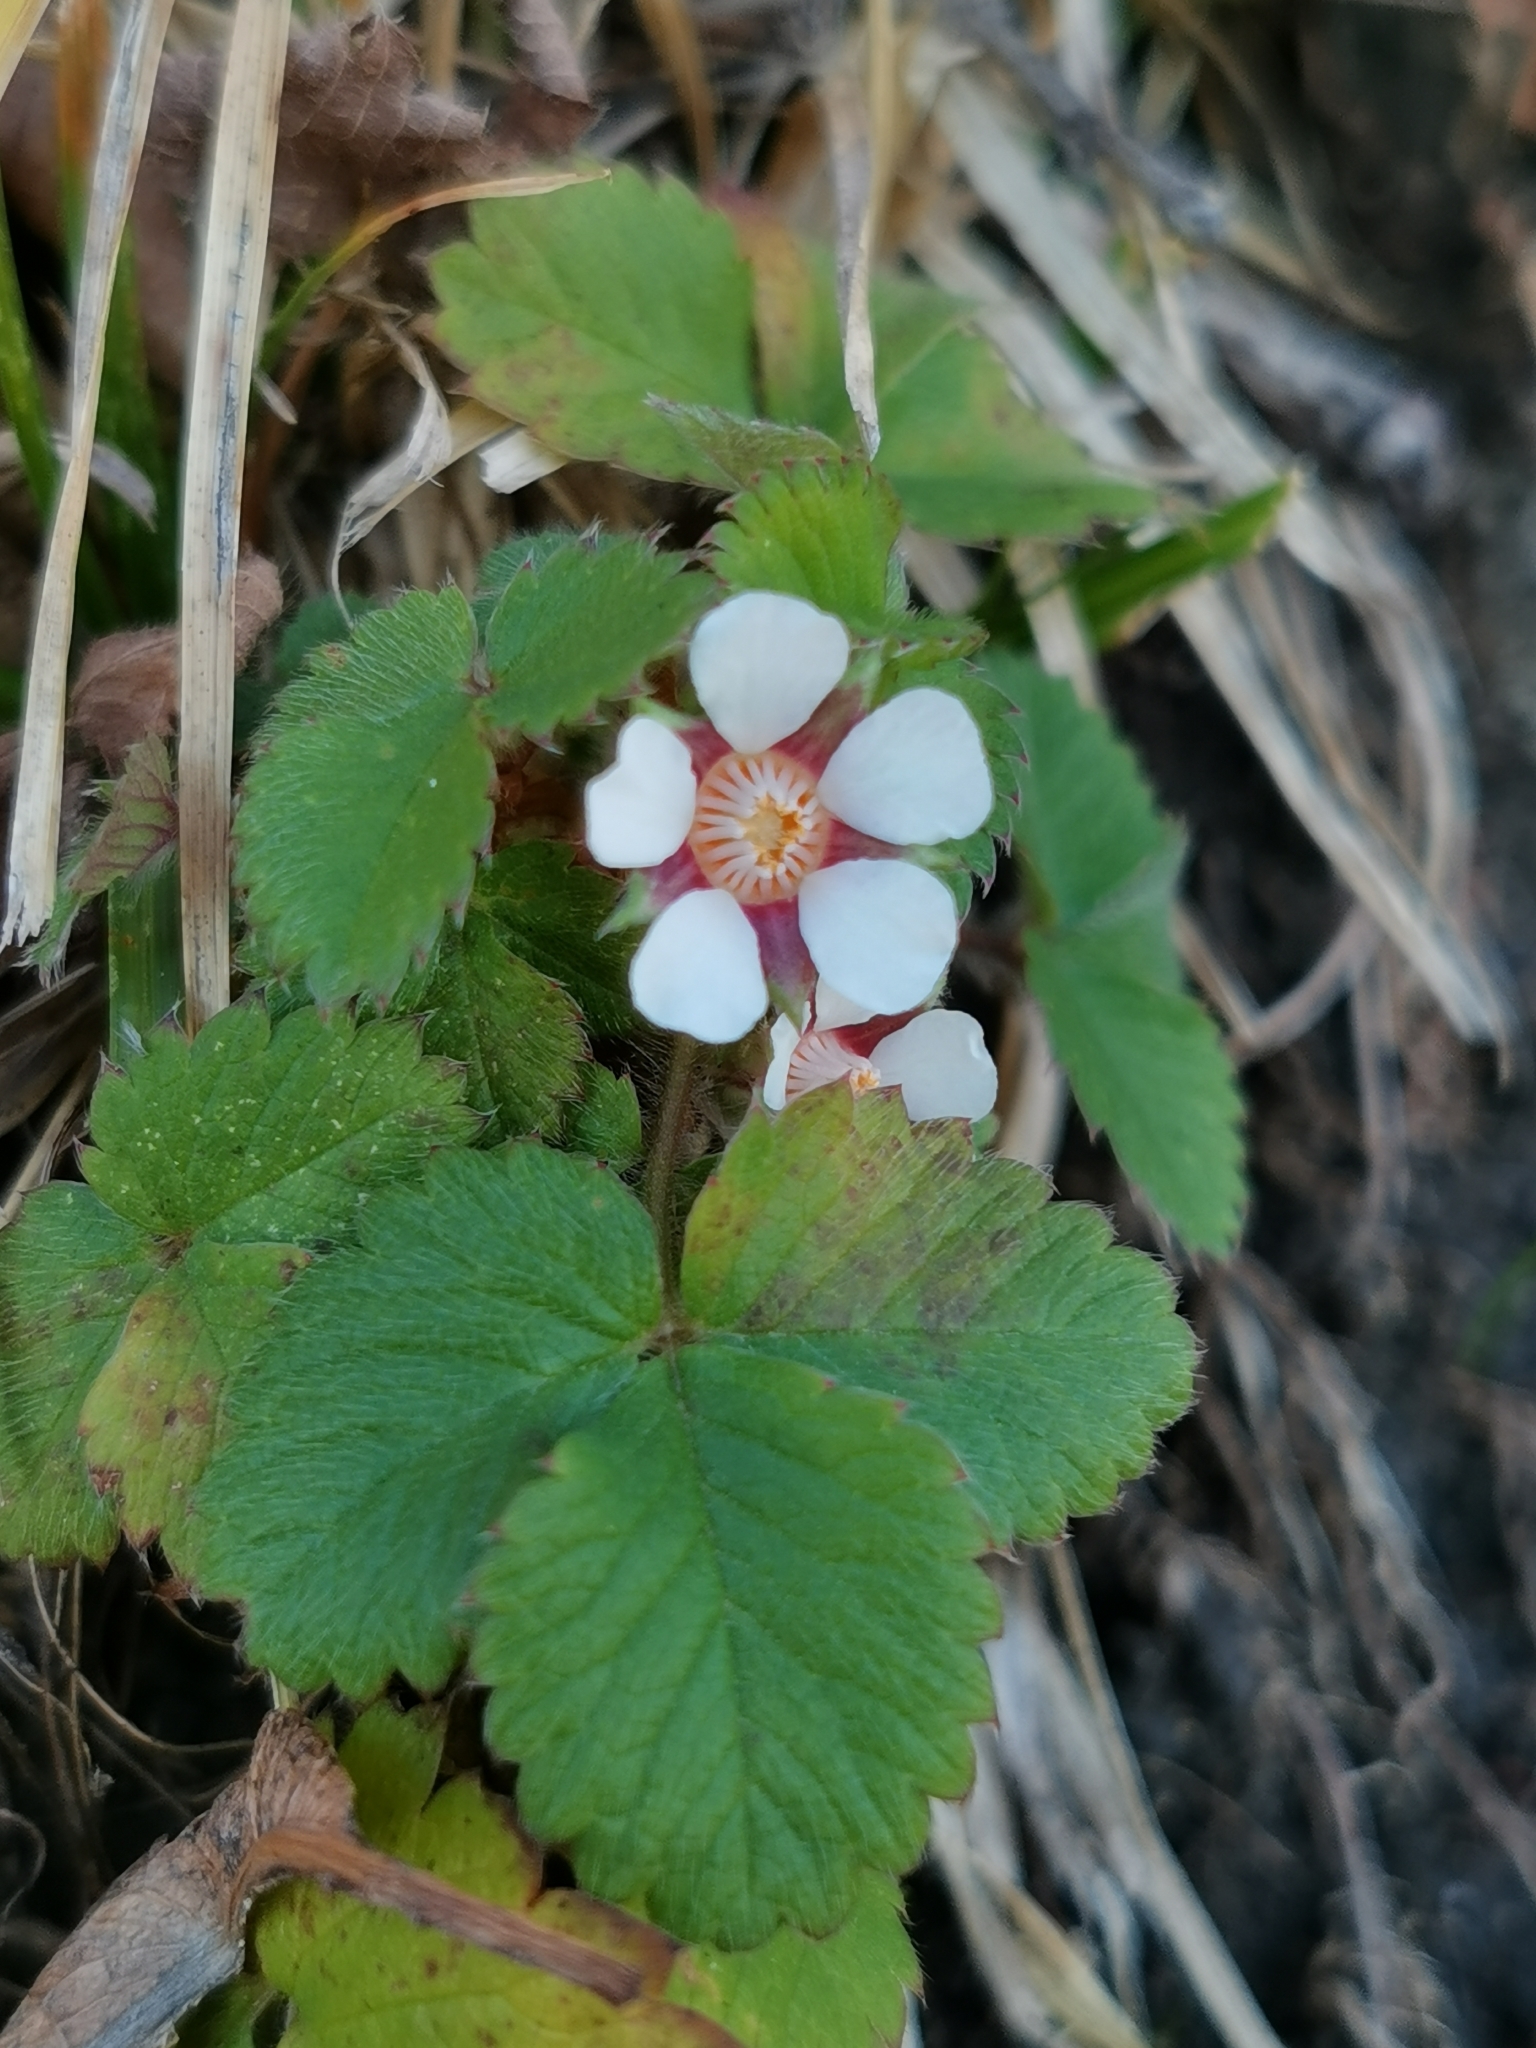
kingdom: Plantae
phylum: Tracheophyta
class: Magnoliopsida
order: Rosales
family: Rosaceae
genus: Potentilla
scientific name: Potentilla micrantha
